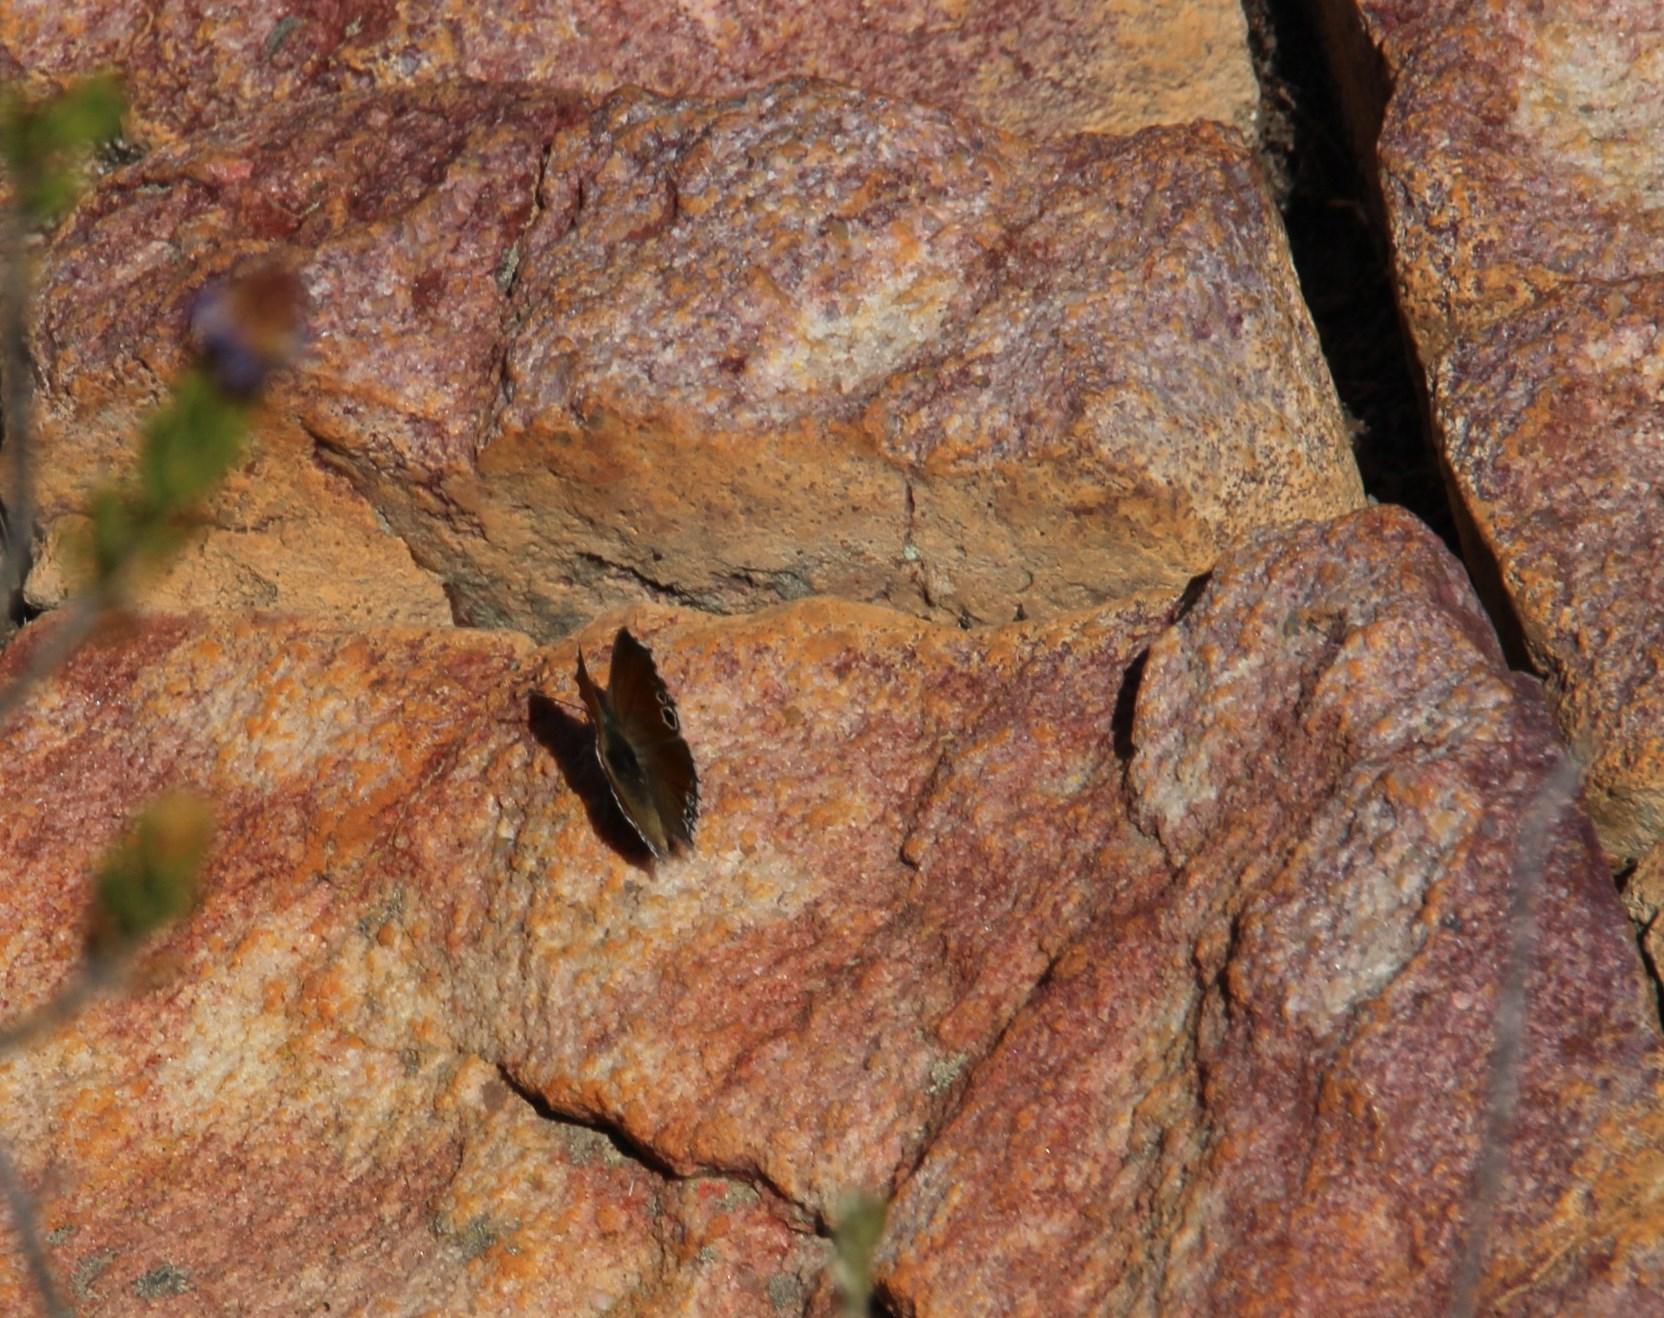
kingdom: Animalia
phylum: Arthropoda
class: Insecta
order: Lepidoptera
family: Lycaenidae
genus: Leptomyrina
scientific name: Leptomyrina lara
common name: Cape black-eye
